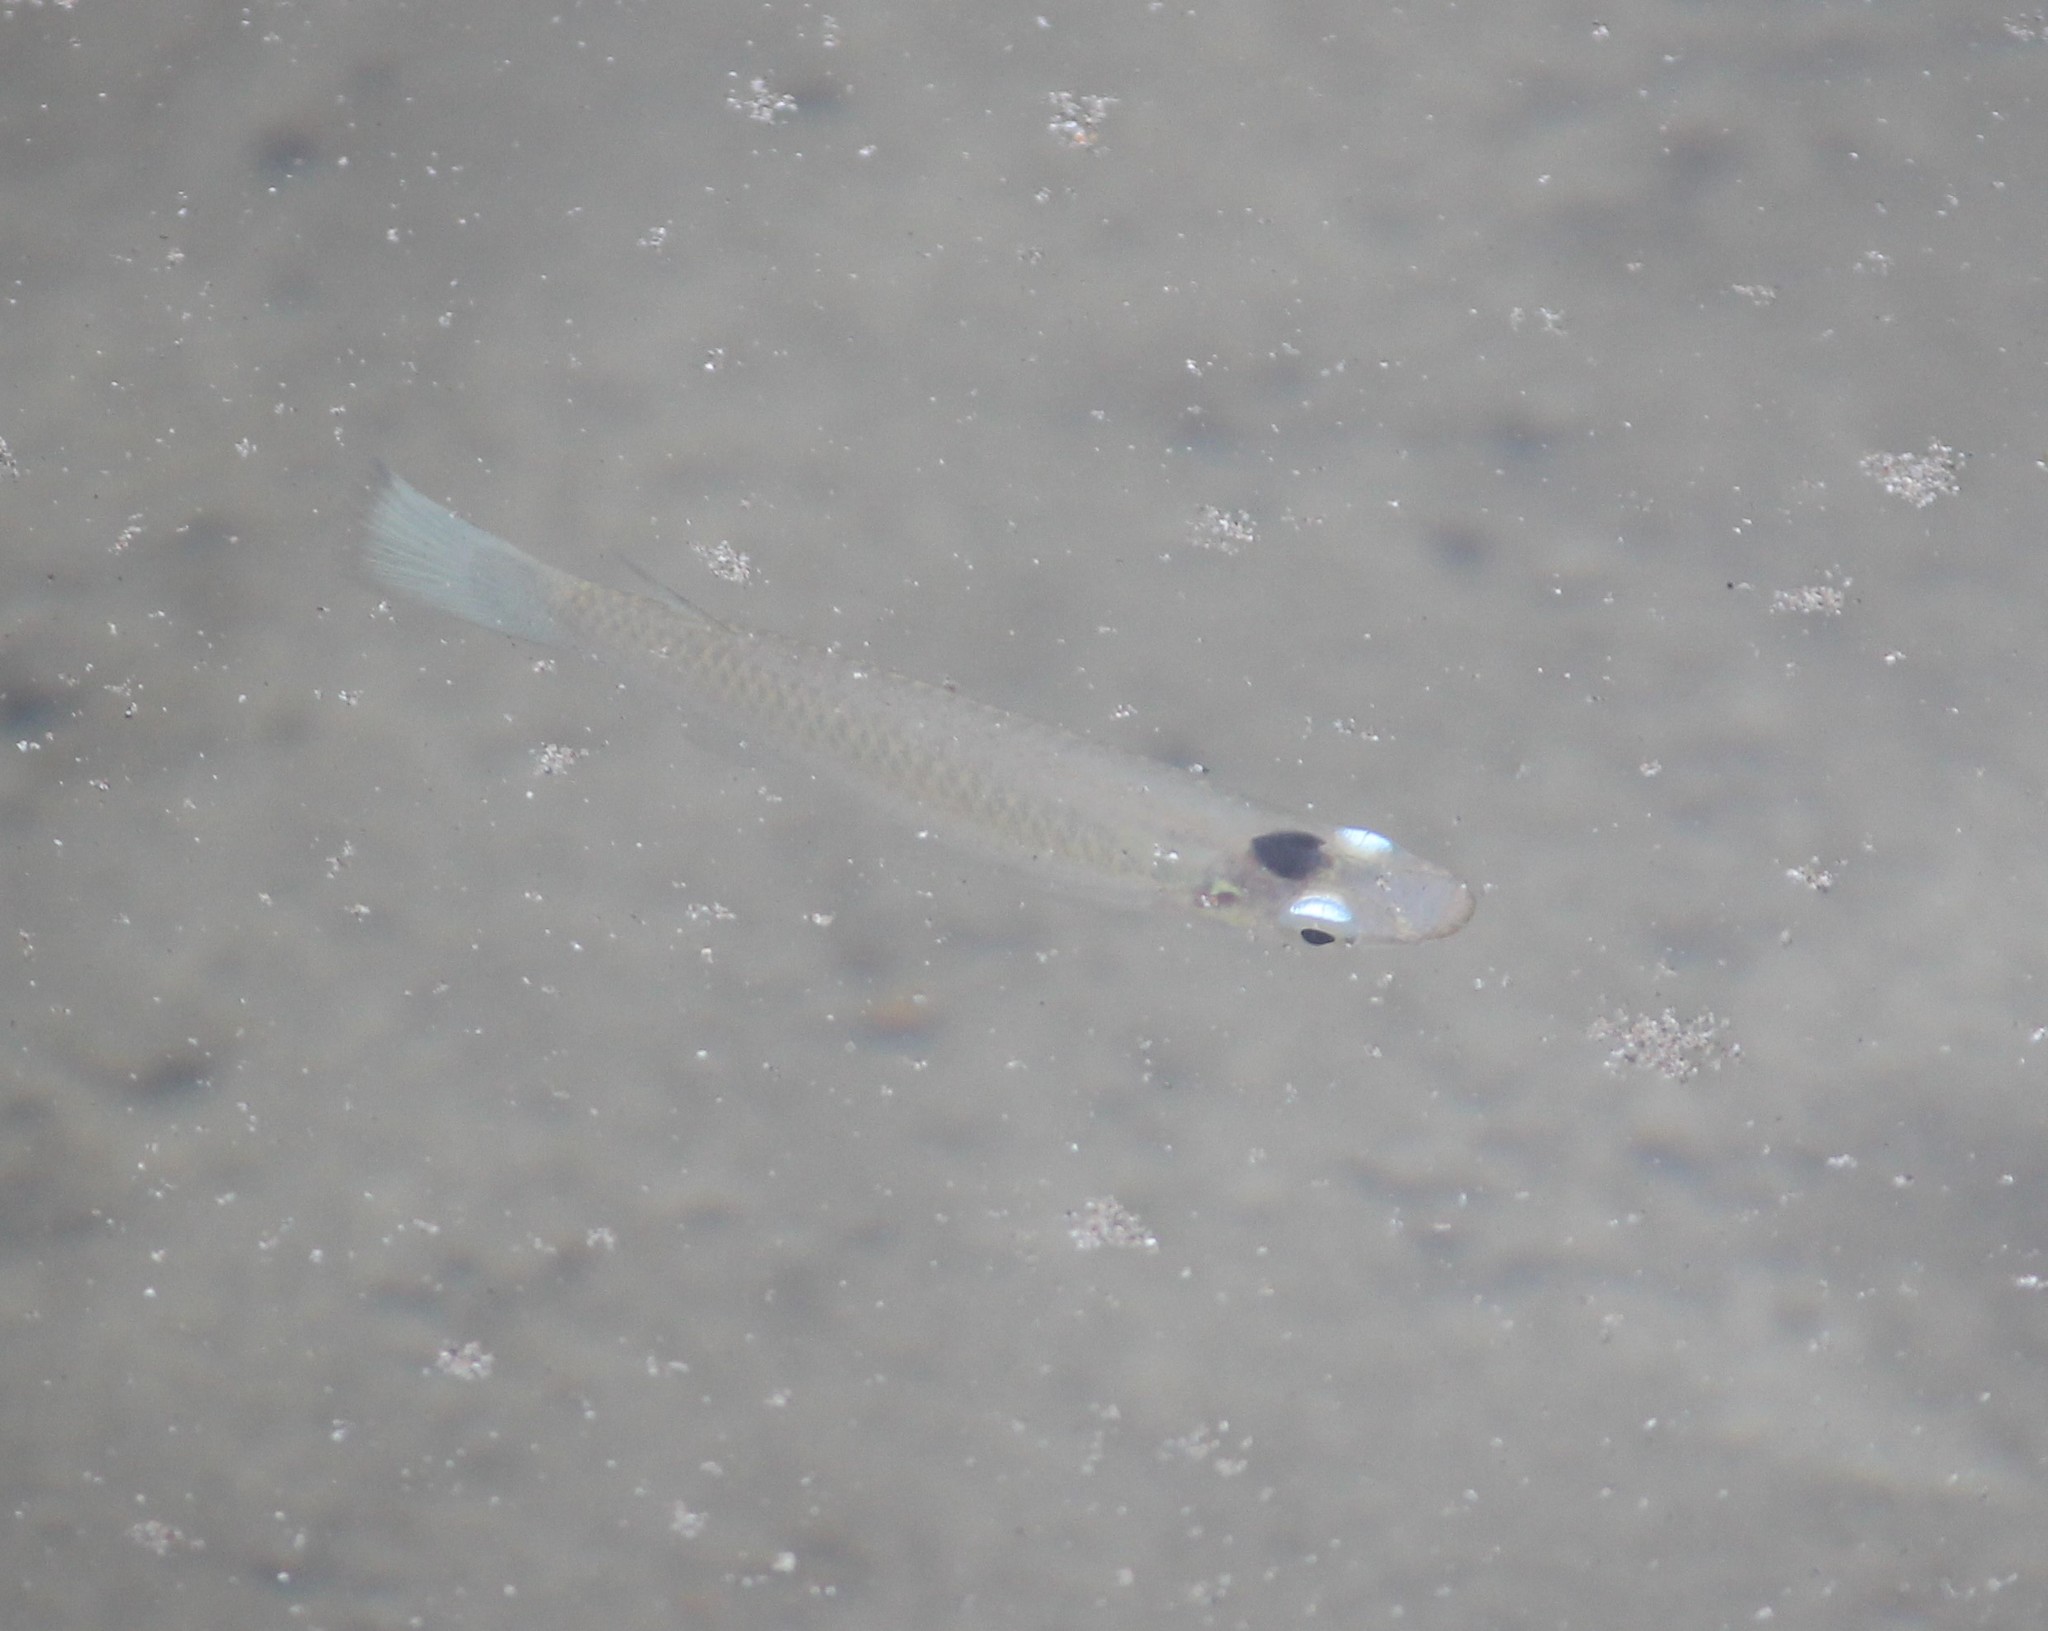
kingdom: Animalia
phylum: Chordata
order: Cyprinodontiformes
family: Anablepidae
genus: Oxyzygonectes
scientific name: Oxyzygonectes dovii
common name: White-eye
